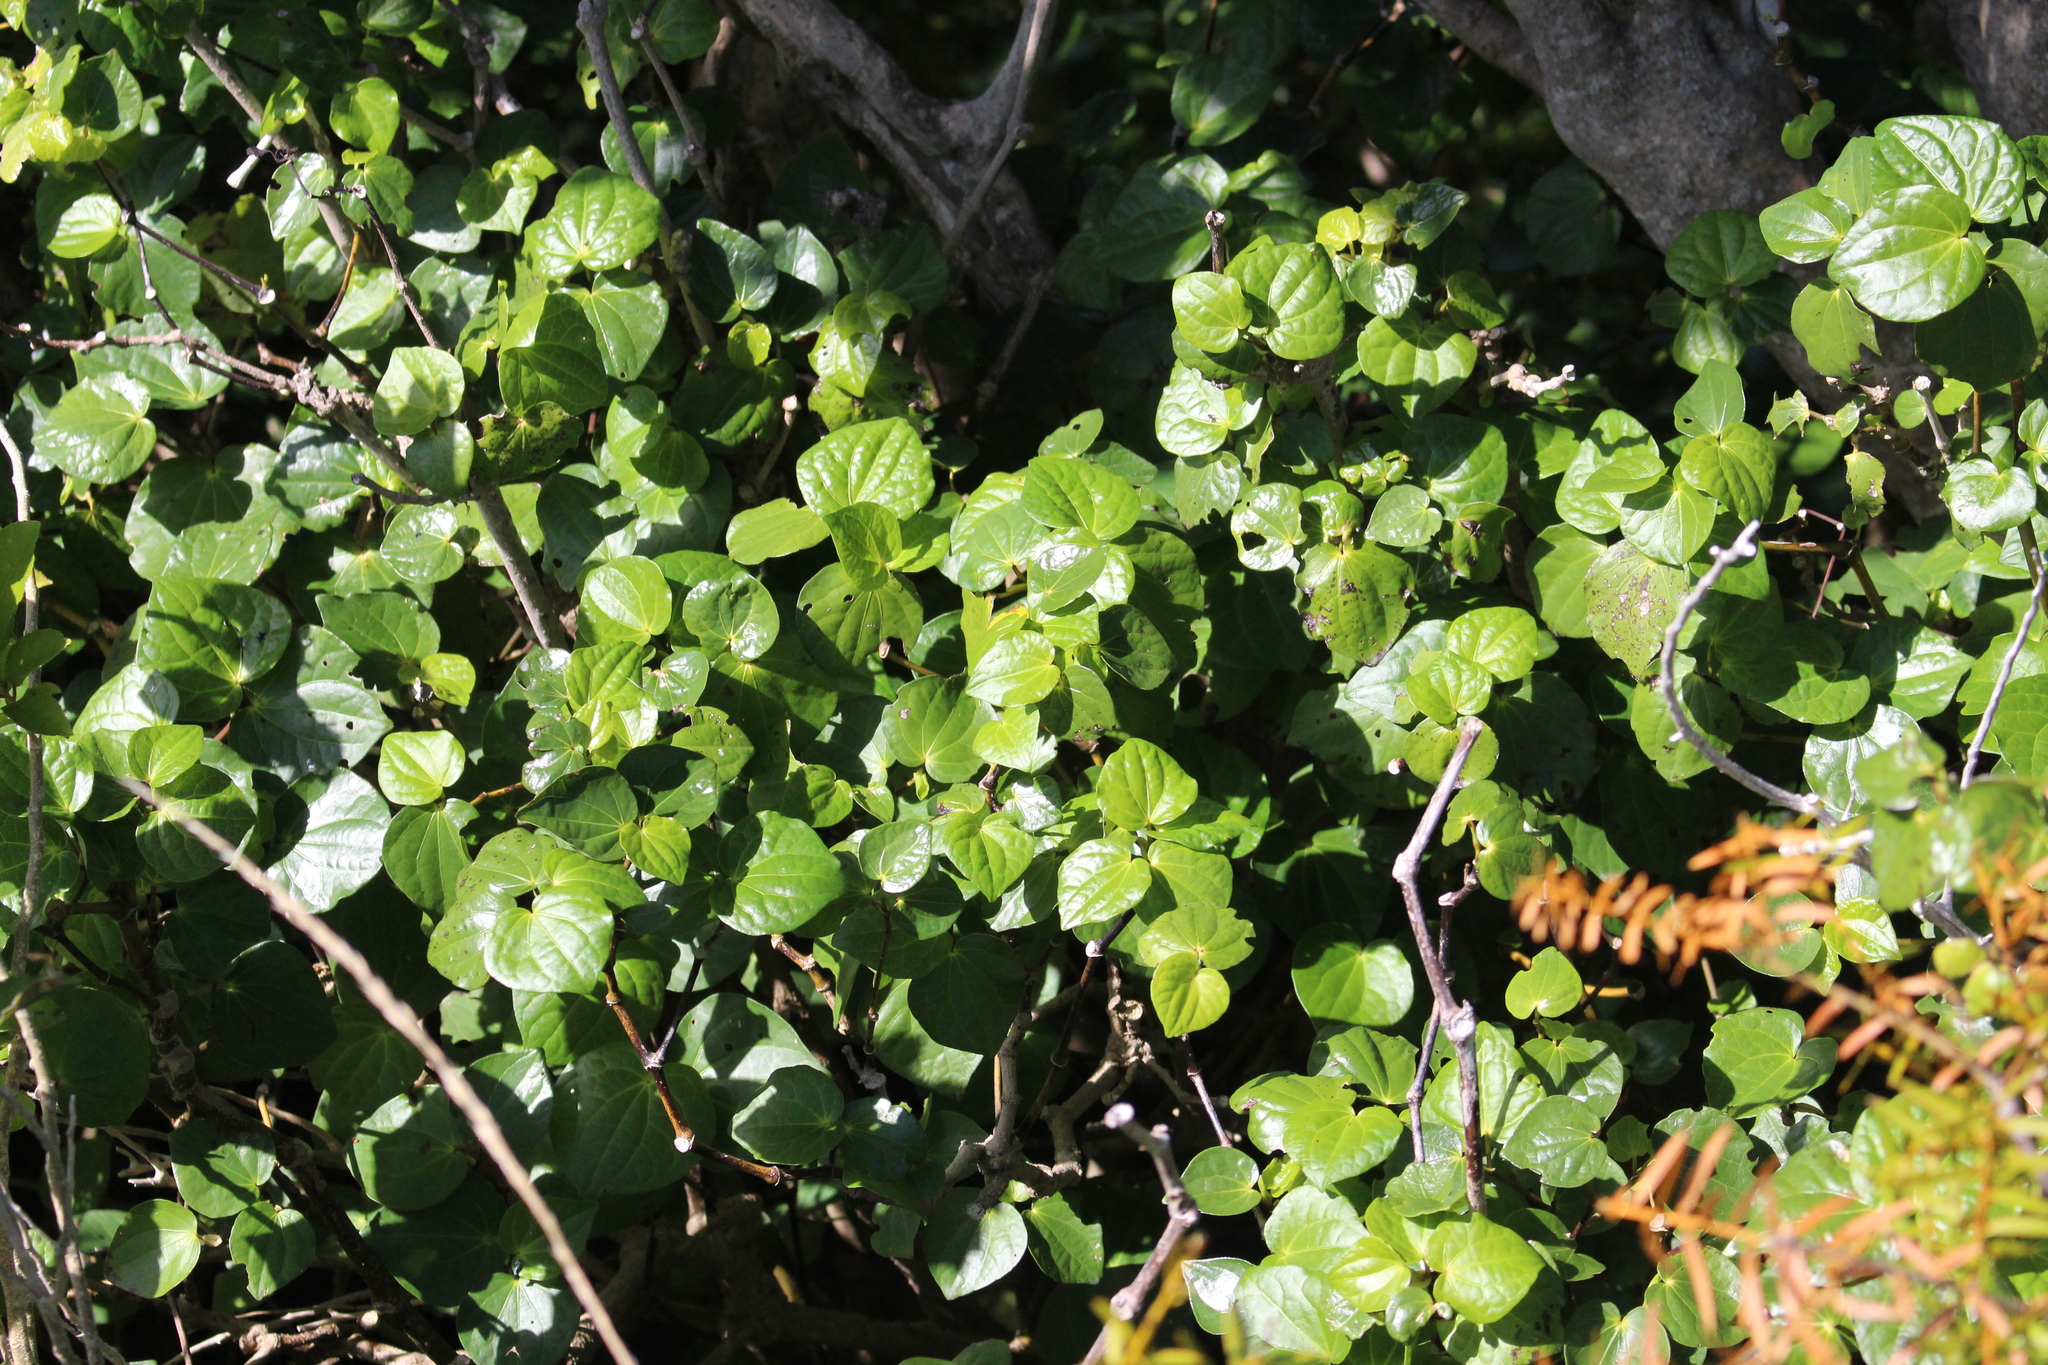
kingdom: Plantae
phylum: Tracheophyta
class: Magnoliopsida
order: Piperales
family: Piperaceae
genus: Macropiper
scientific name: Macropiper excelsum
